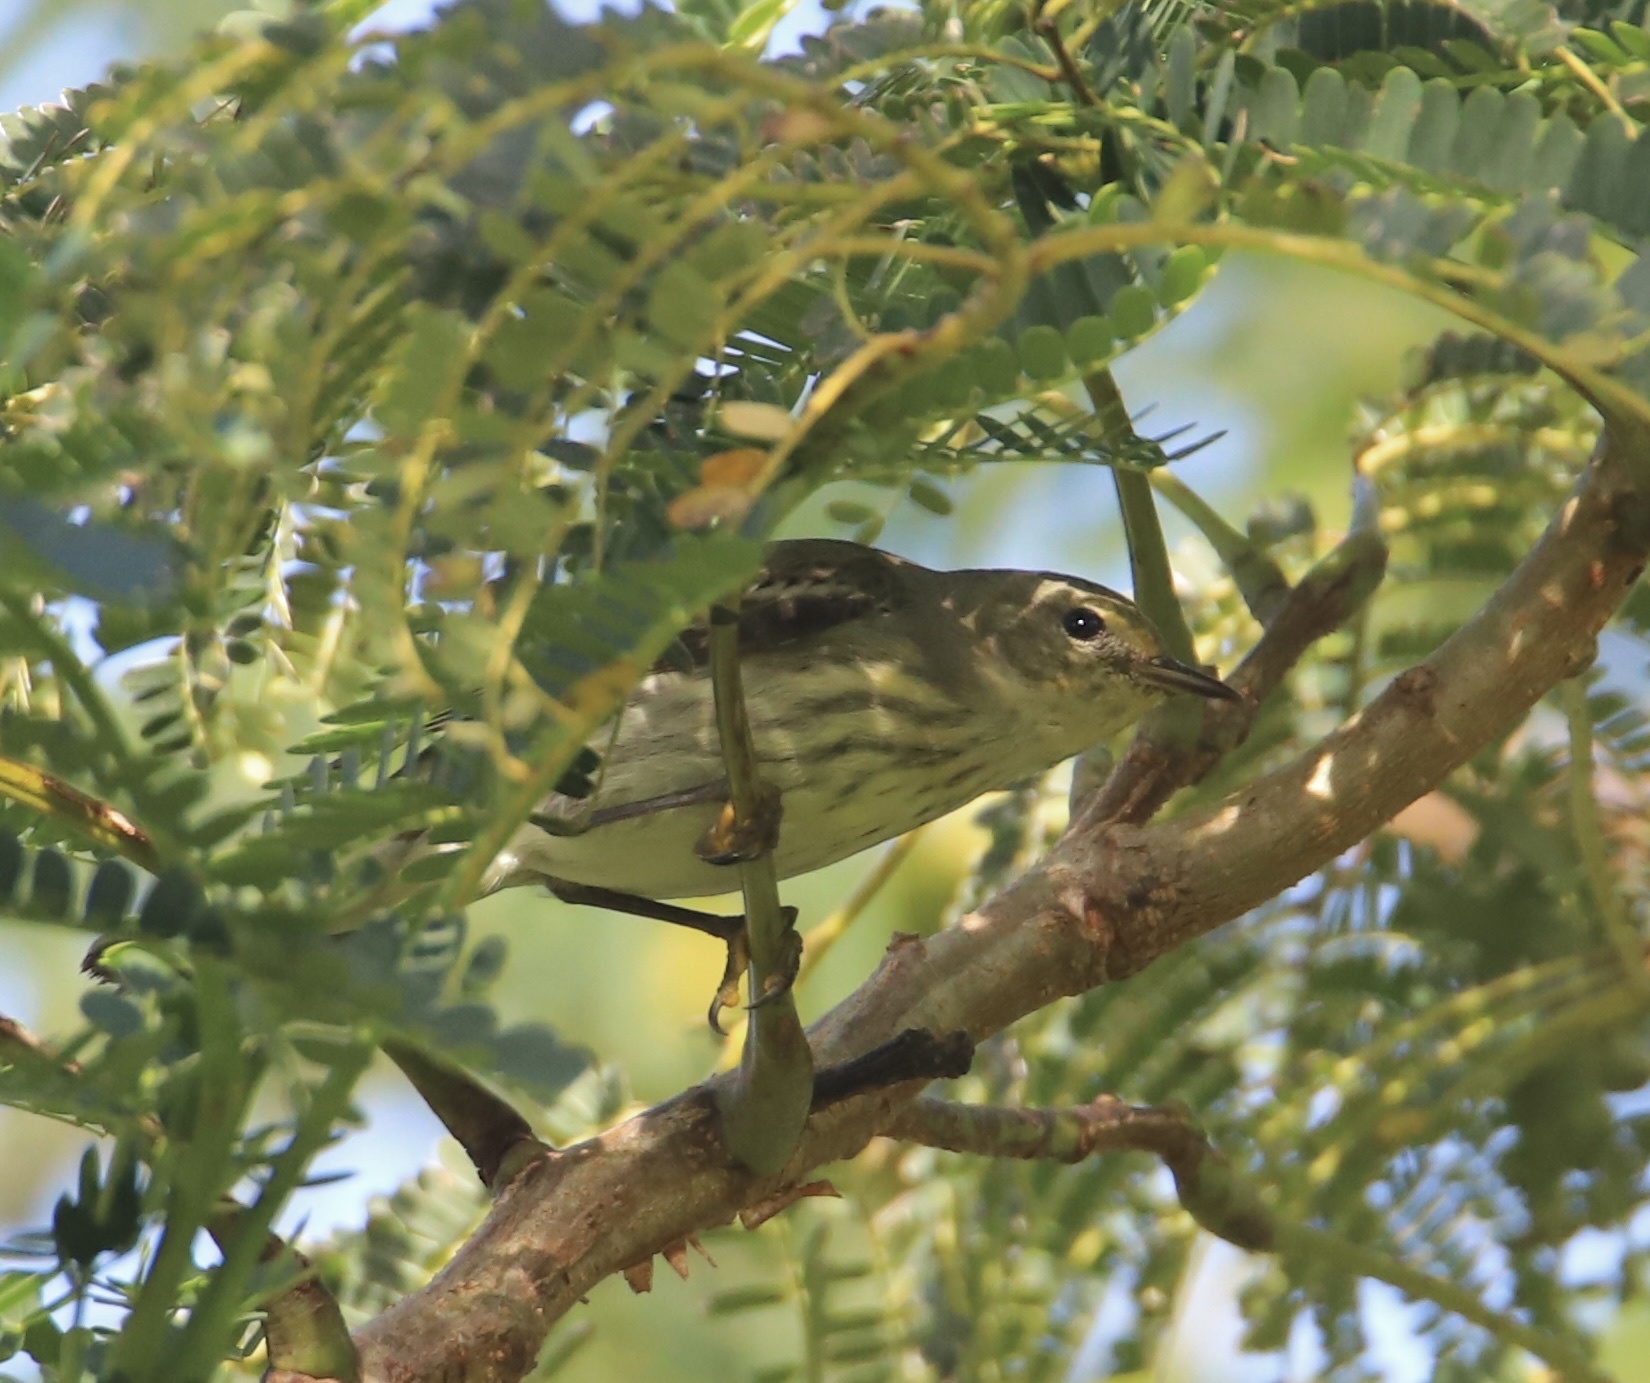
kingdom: Animalia
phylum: Chordata
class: Aves
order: Passeriformes
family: Parulidae
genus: Setophaga
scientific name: Setophaga tigrina
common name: Cape may warbler
